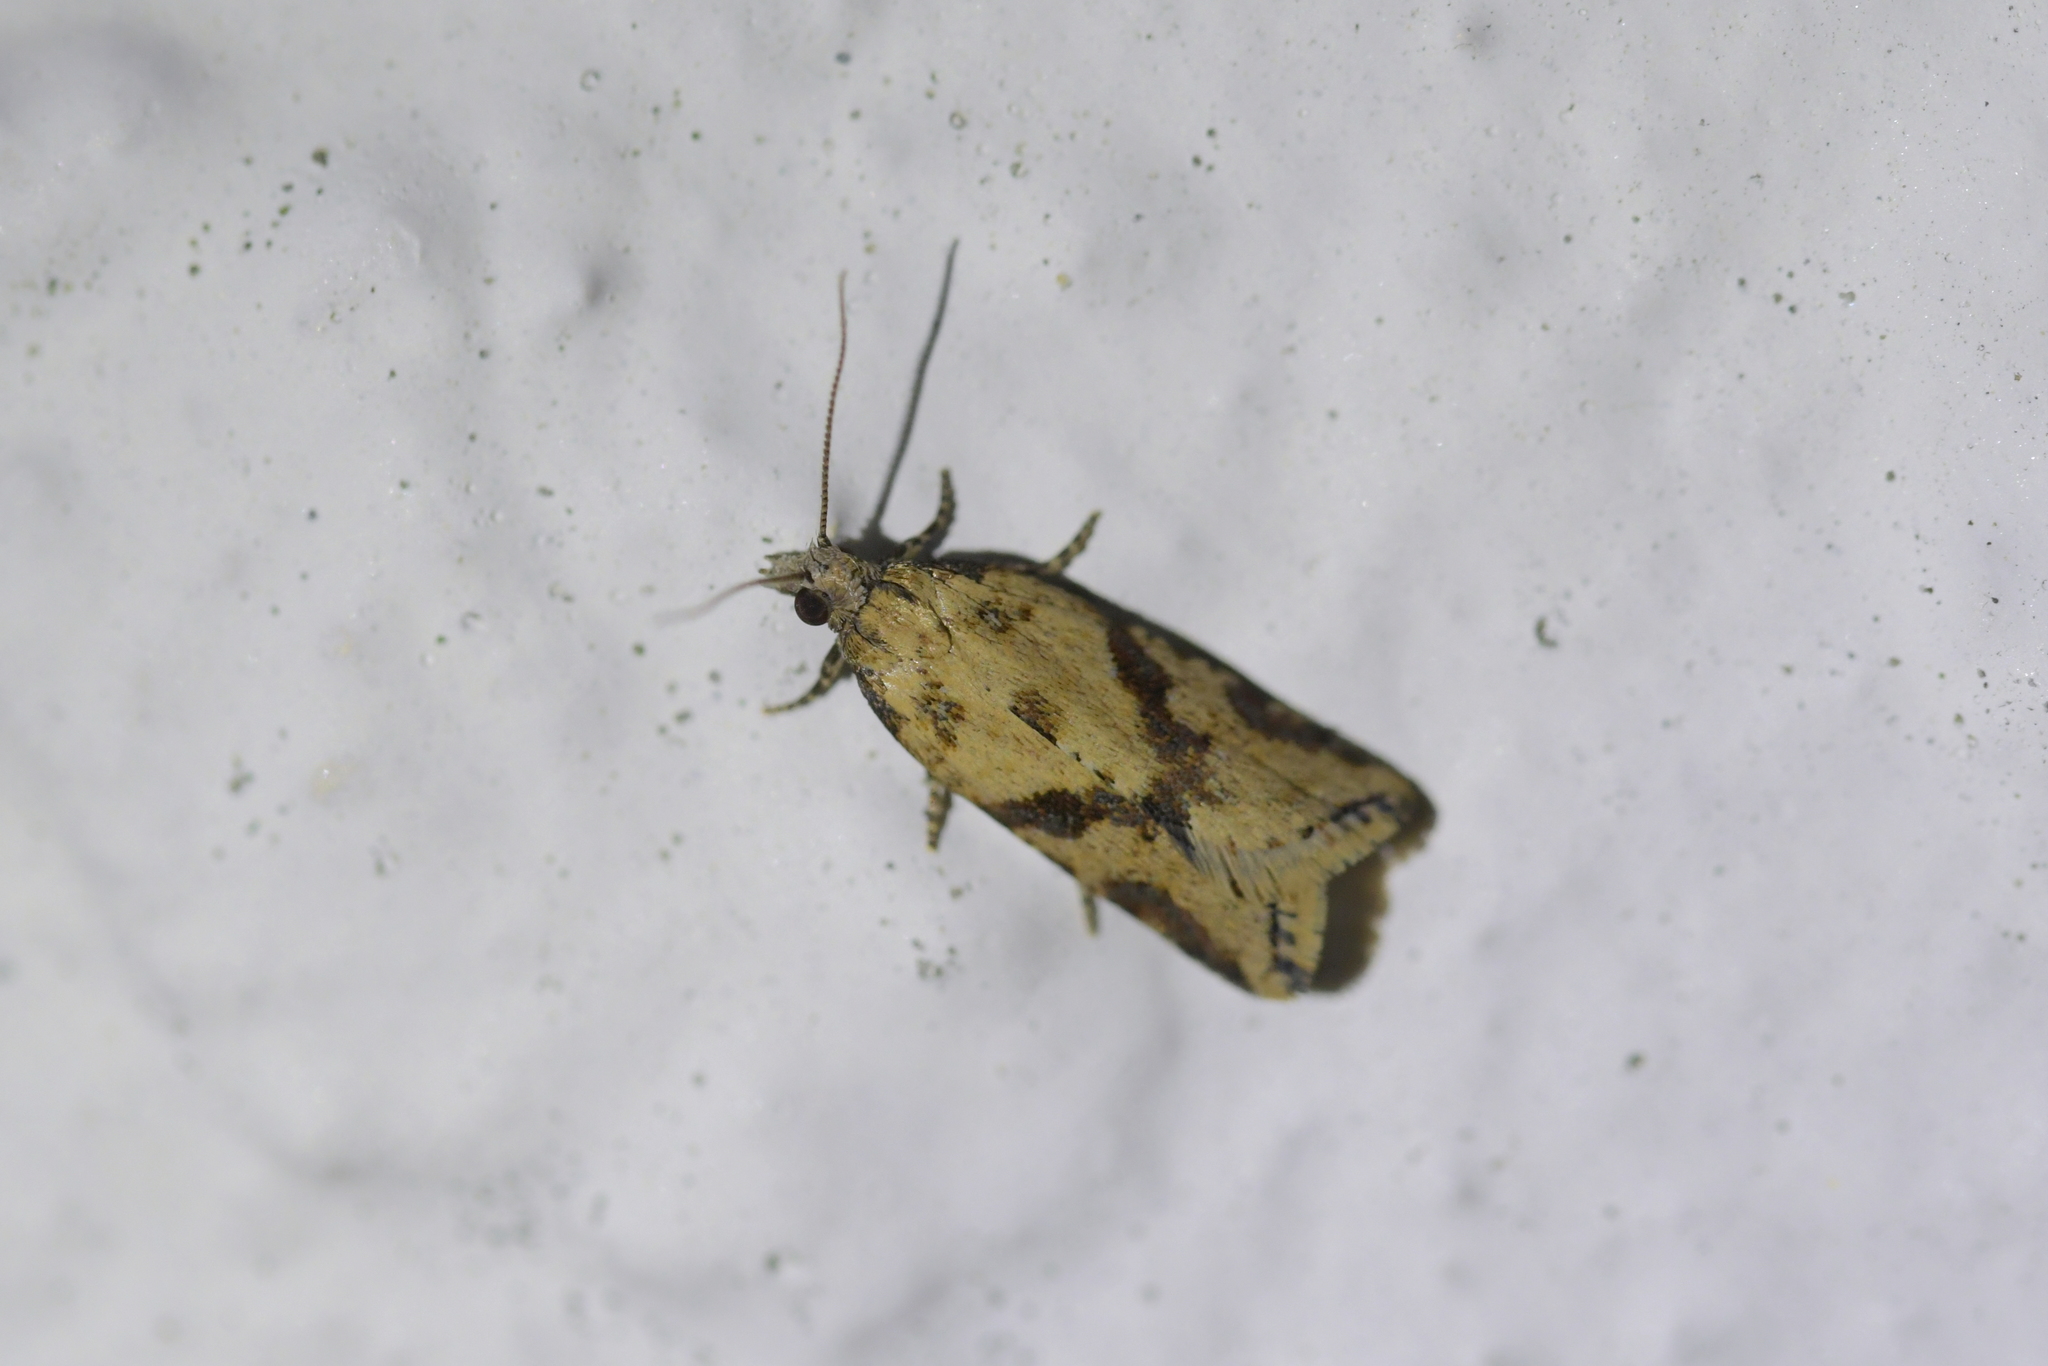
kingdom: Animalia
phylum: Arthropoda
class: Insecta
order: Lepidoptera
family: Tortricidae
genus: Capua
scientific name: Capua semiferana
